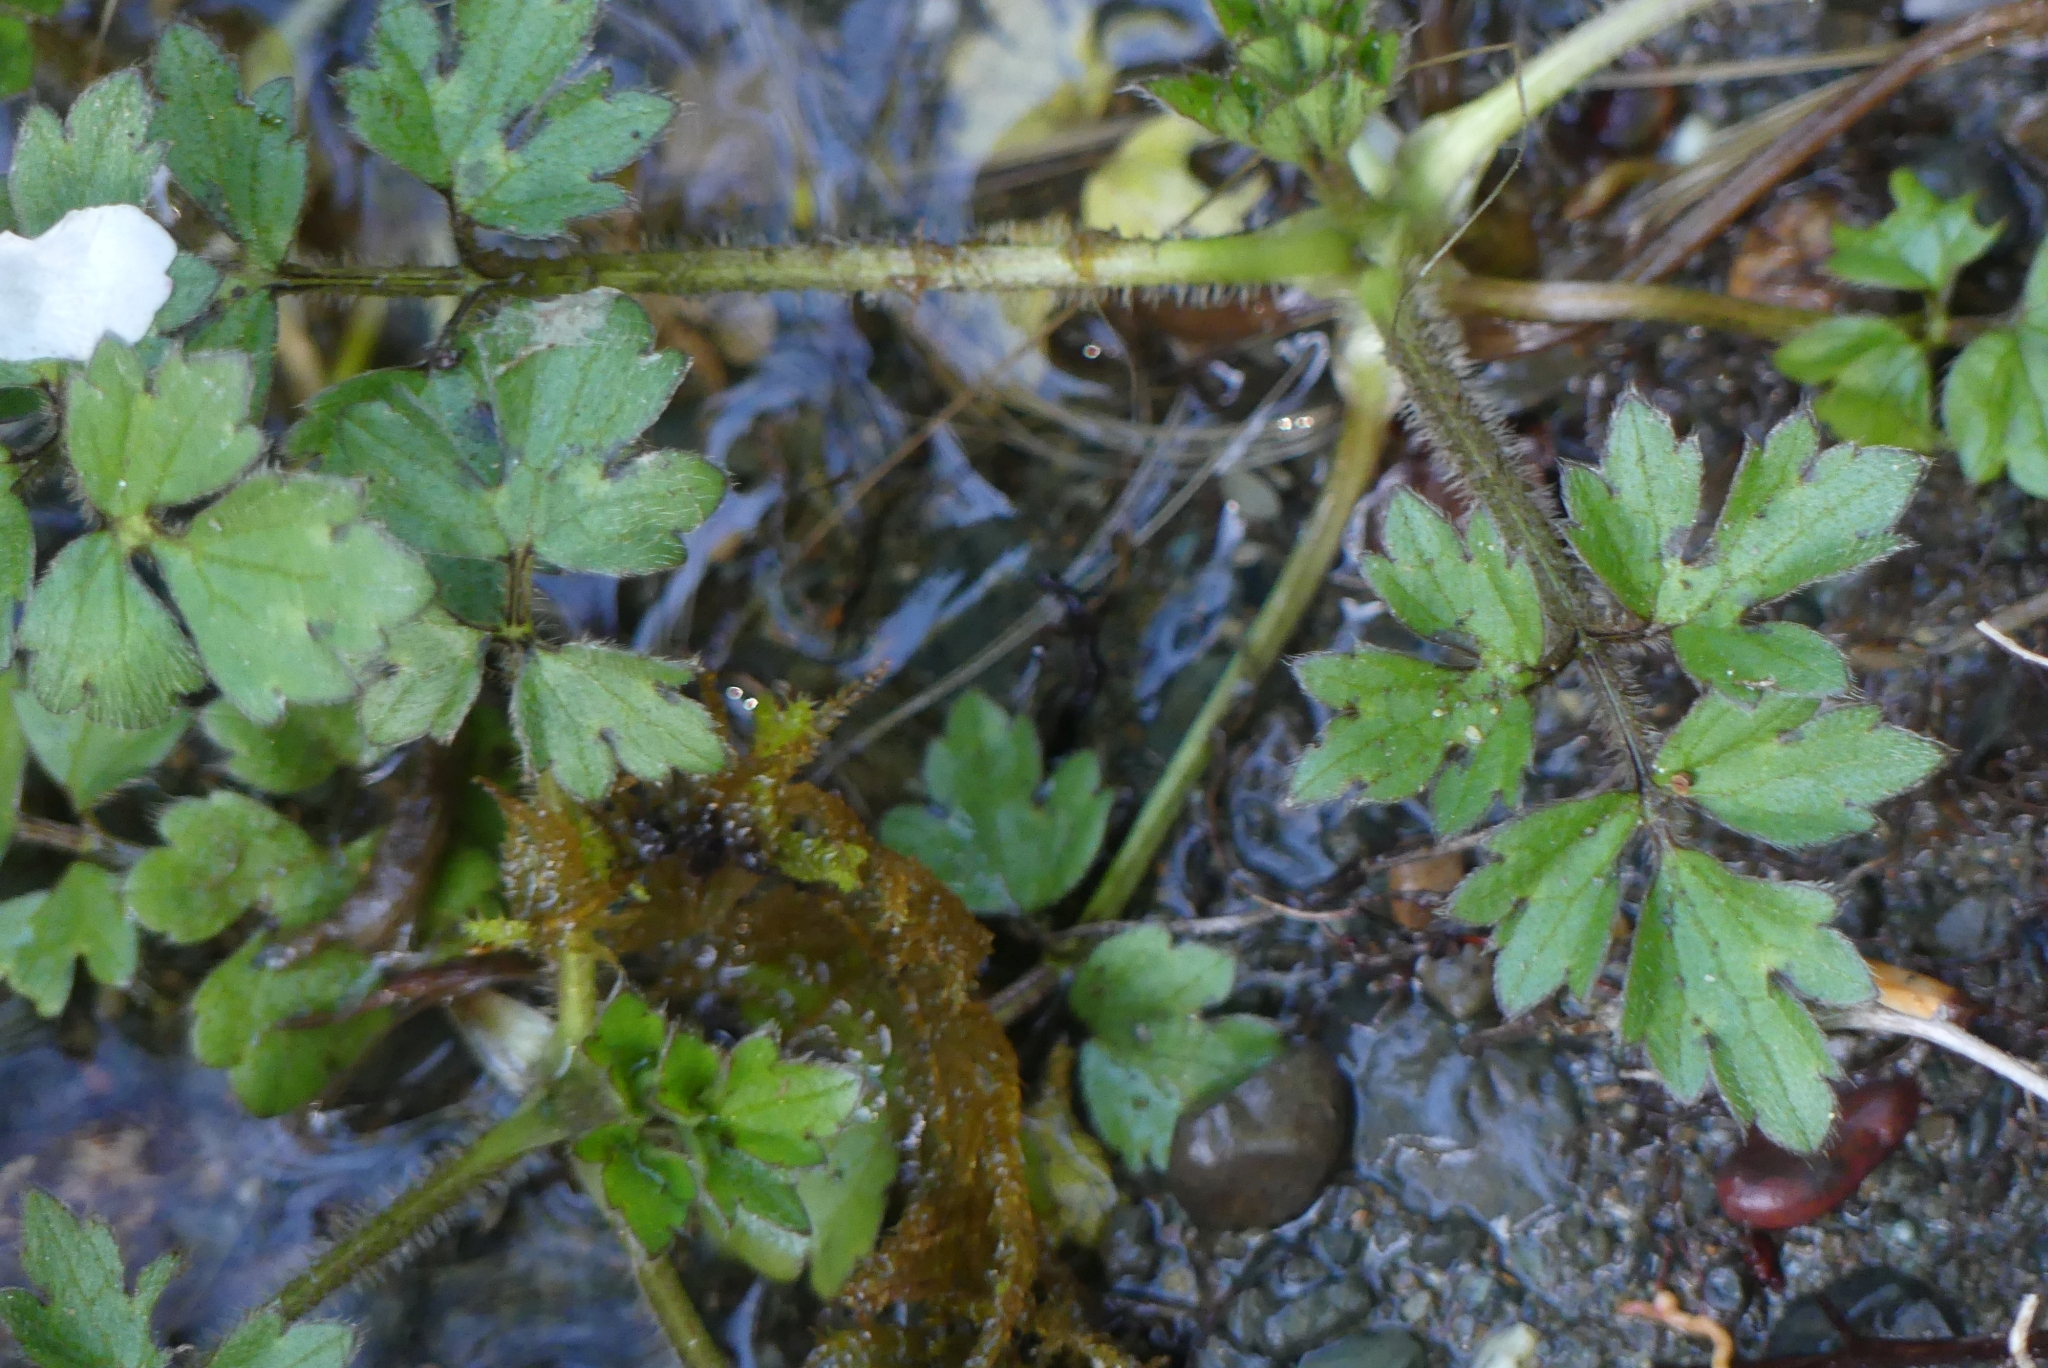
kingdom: Plantae
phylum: Tracheophyta
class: Magnoliopsida
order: Ranunculales
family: Ranunculaceae
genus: Ranunculus
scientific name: Ranunculus repens
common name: Creeping buttercup
